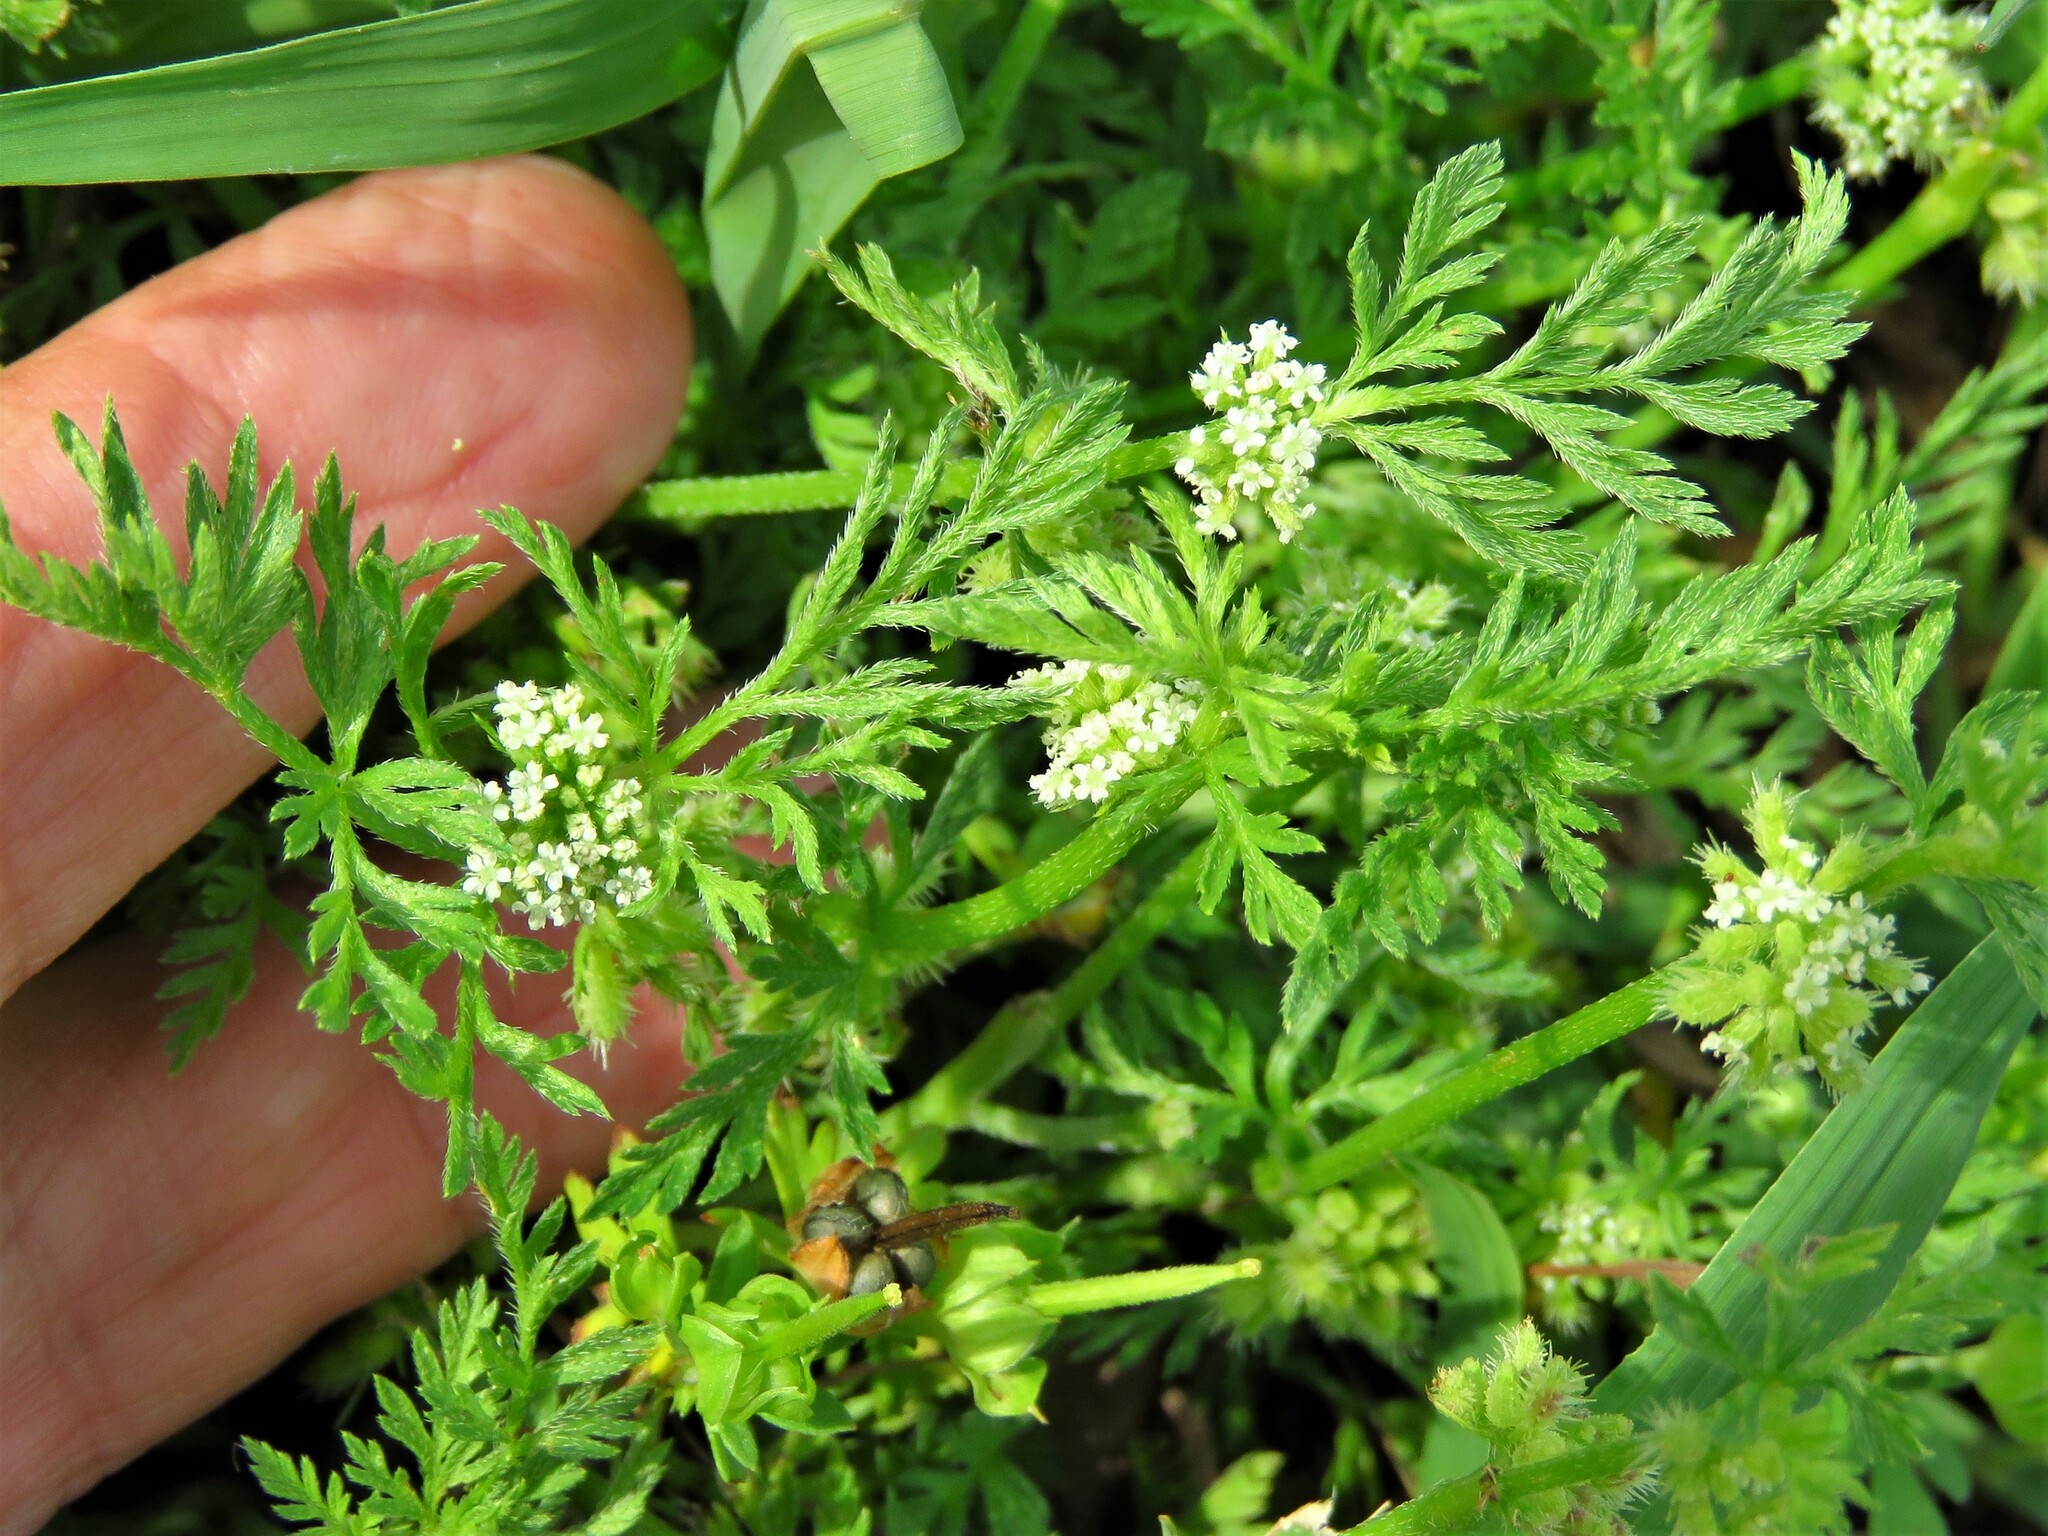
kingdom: Plantae
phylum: Tracheophyta
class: Magnoliopsida
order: Apiales
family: Apiaceae
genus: Torilis
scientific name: Torilis nodosa
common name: Knotted hedge-parsley
